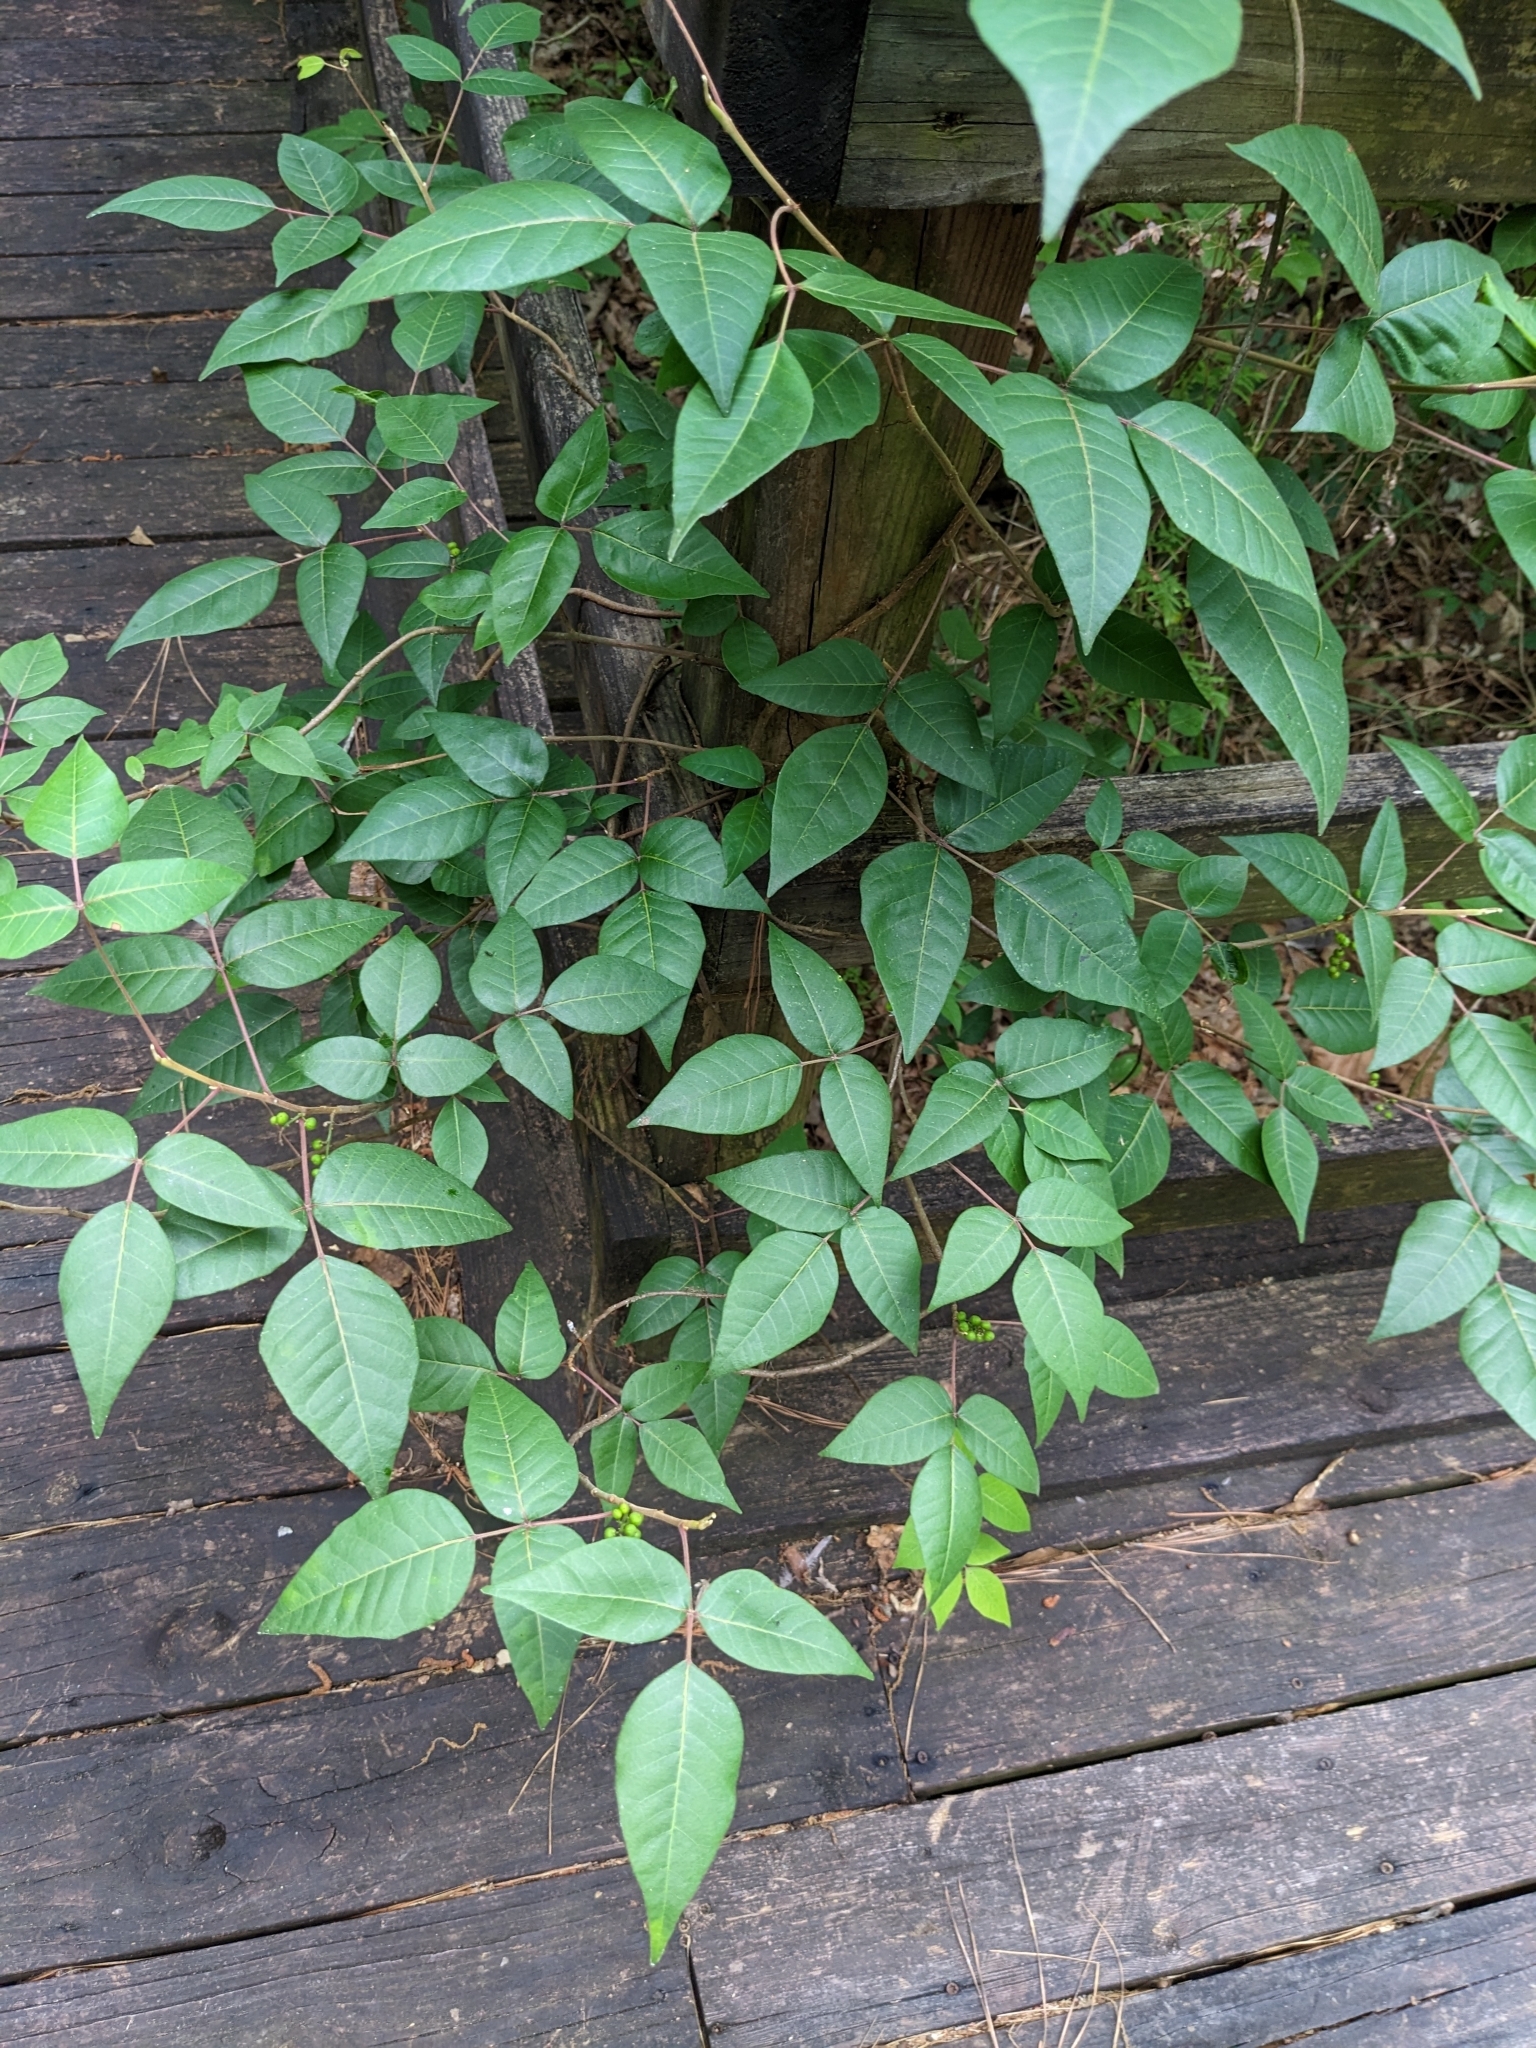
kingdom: Plantae
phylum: Tracheophyta
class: Magnoliopsida
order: Sapindales
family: Anacardiaceae
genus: Toxicodendron
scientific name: Toxicodendron radicans
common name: Poison ivy
